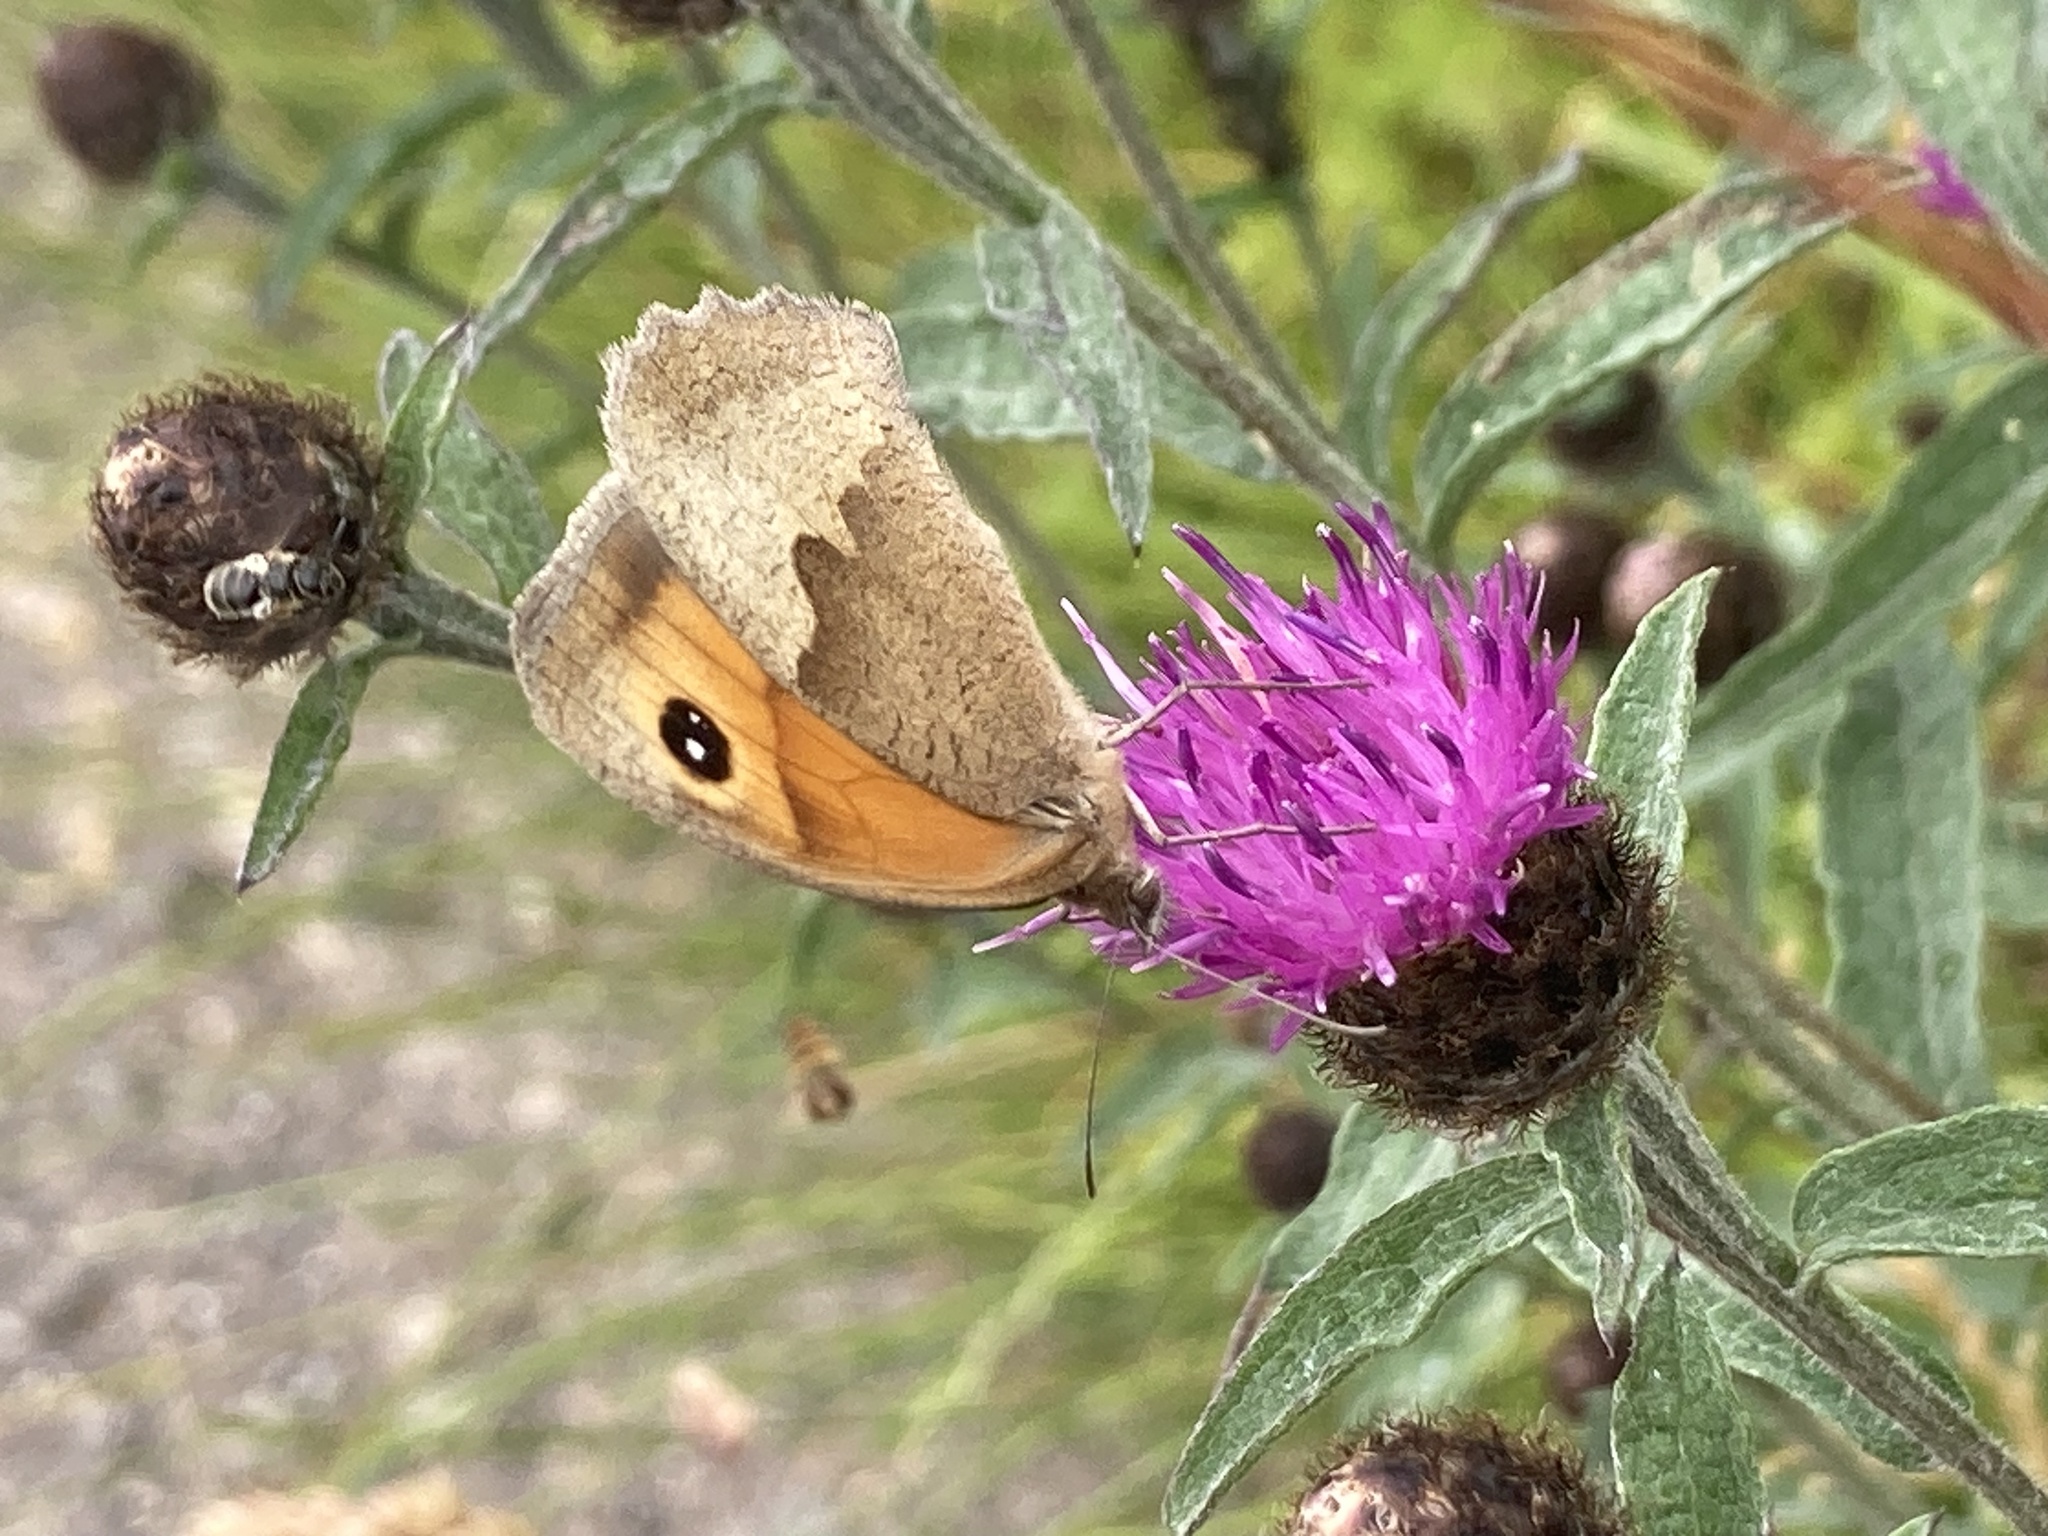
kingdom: Animalia
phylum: Arthropoda
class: Insecta
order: Lepidoptera
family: Nymphalidae
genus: Maniola
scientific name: Maniola jurtina
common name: Meadow brown
